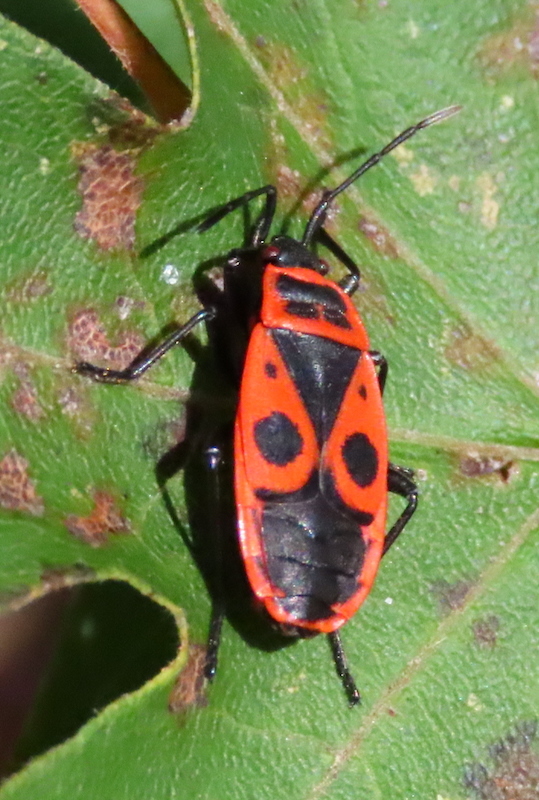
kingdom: Animalia
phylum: Arthropoda
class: Insecta
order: Hemiptera
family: Pyrrhocoridae
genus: Pyrrhocoris
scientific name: Pyrrhocoris apterus
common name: Firebug
